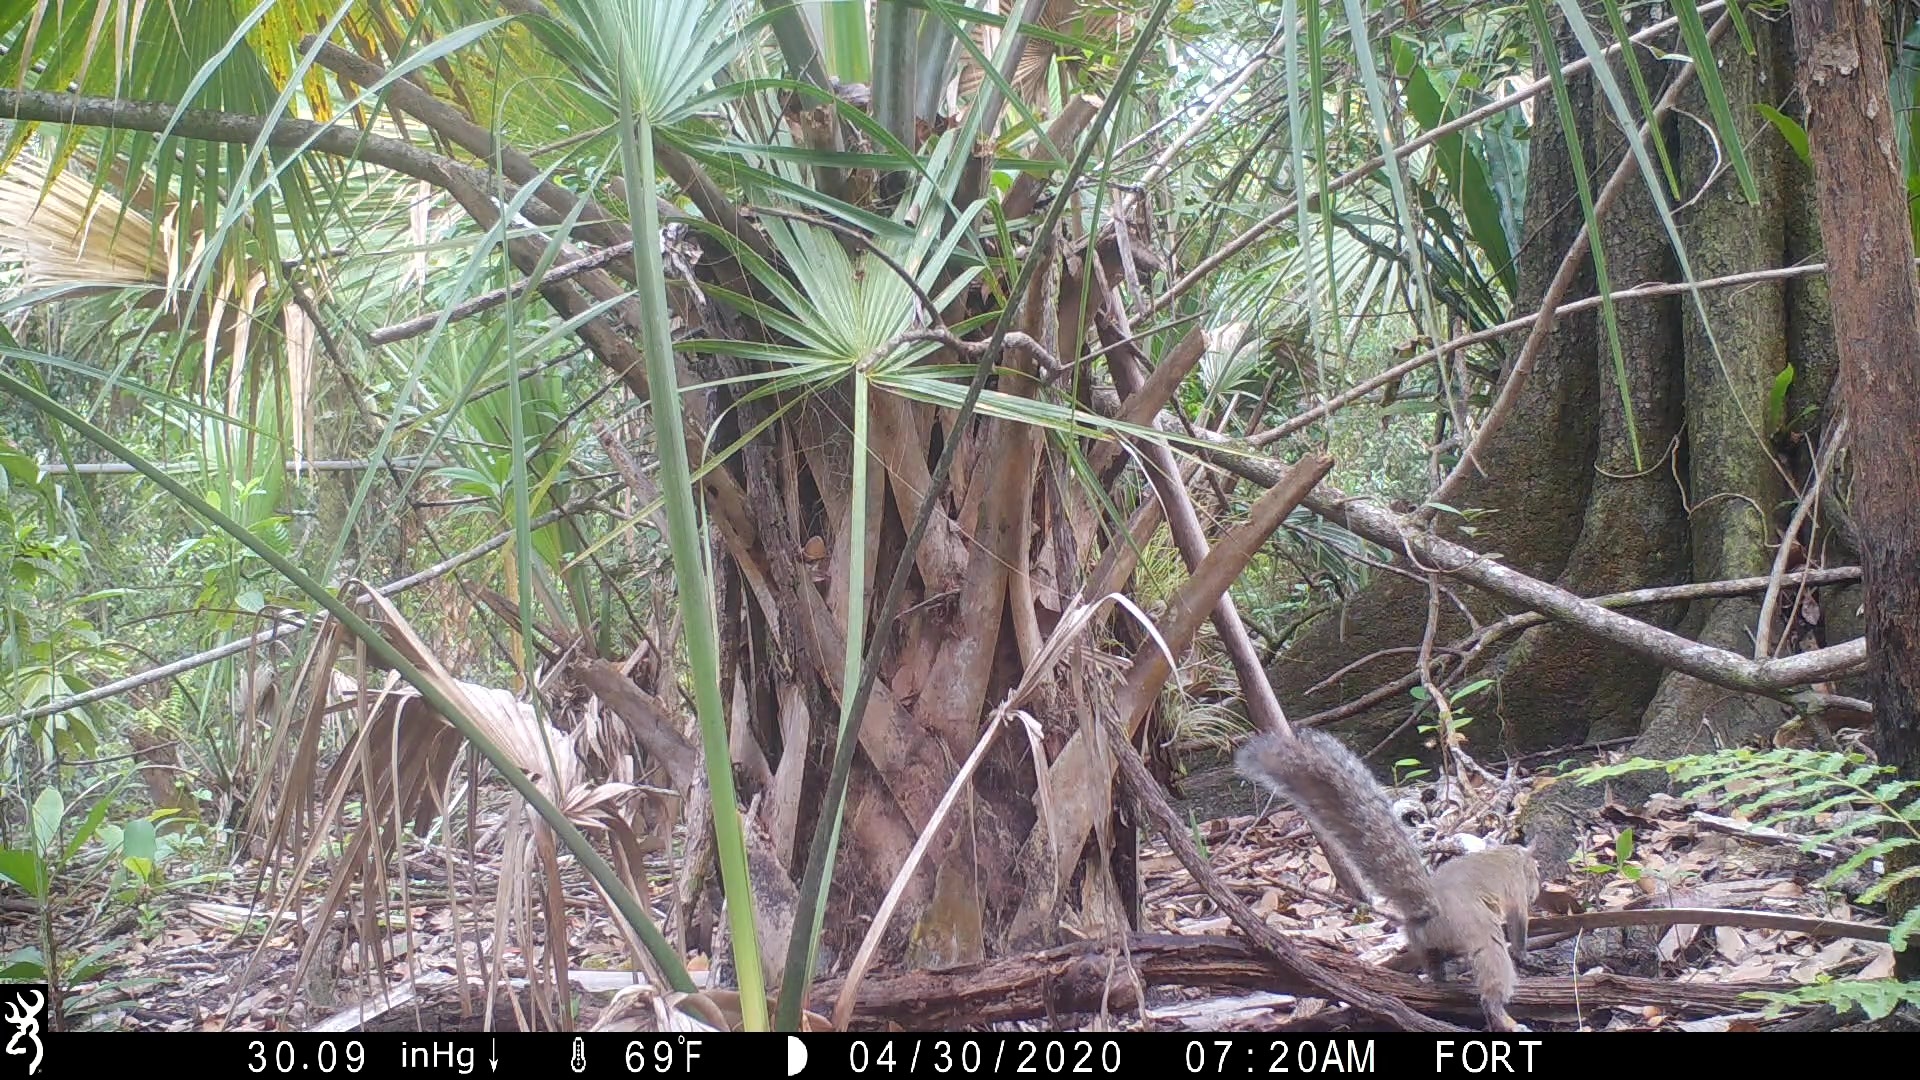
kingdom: Animalia
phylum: Chordata
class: Mammalia
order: Rodentia
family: Sciuridae
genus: Sciurus
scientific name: Sciurus carolinensis
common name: Eastern gray squirrel
